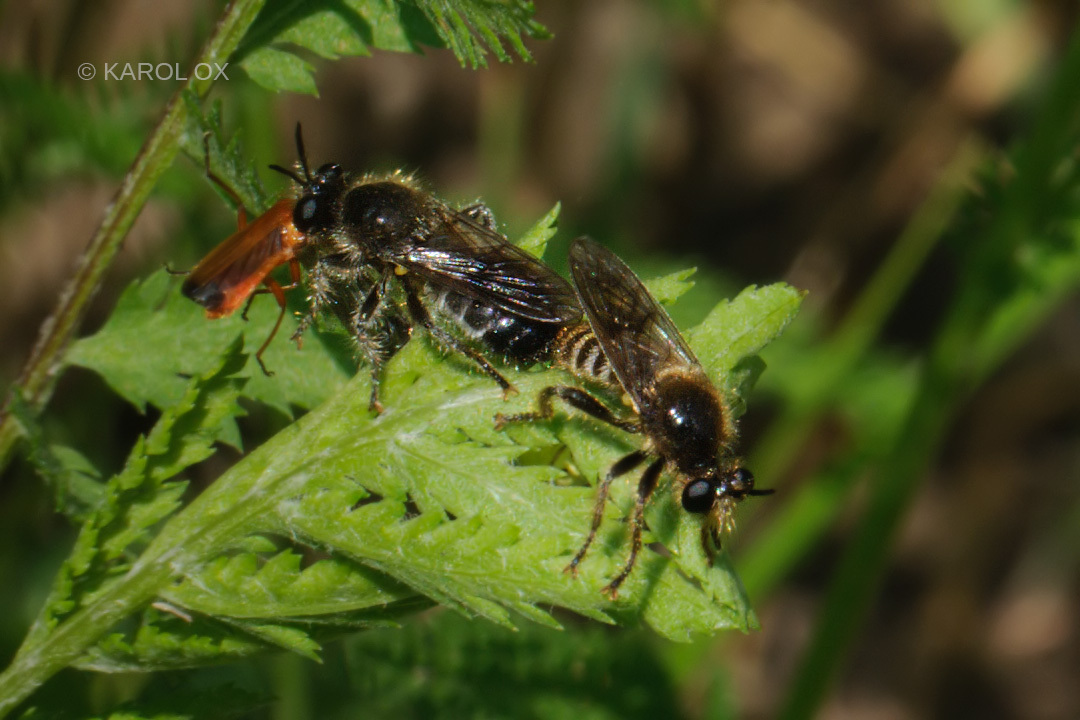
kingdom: Animalia
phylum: Arthropoda
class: Insecta
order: Diptera
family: Asilidae
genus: Lamyra
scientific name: Lamyra fuliginosa
